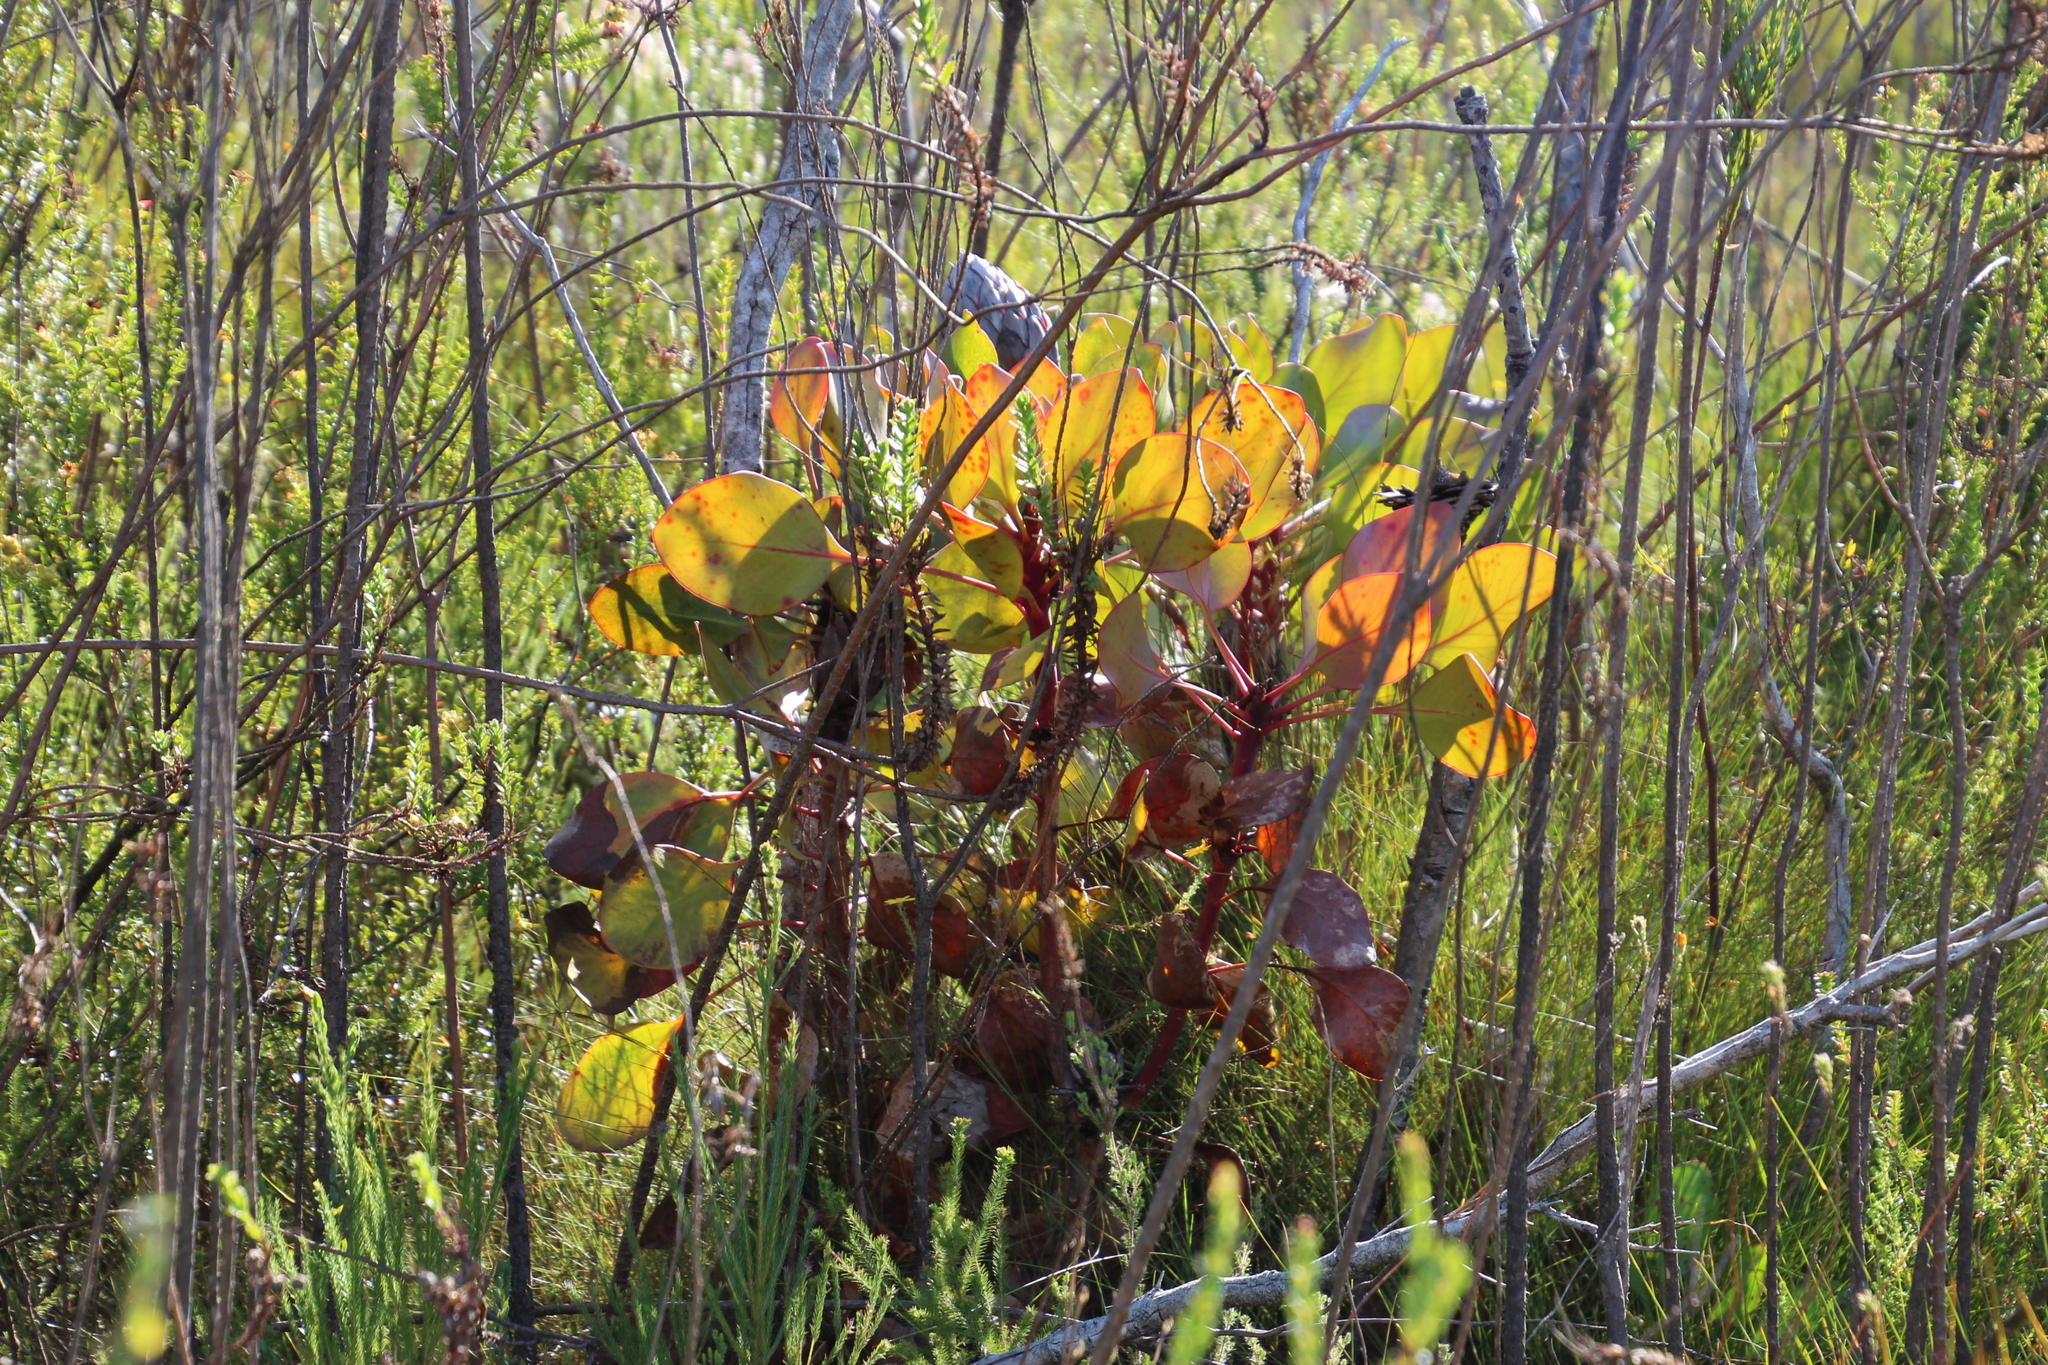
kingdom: Plantae
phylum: Tracheophyta
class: Magnoliopsida
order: Proteales
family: Proteaceae
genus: Protea
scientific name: Protea cynaroides
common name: King protea
